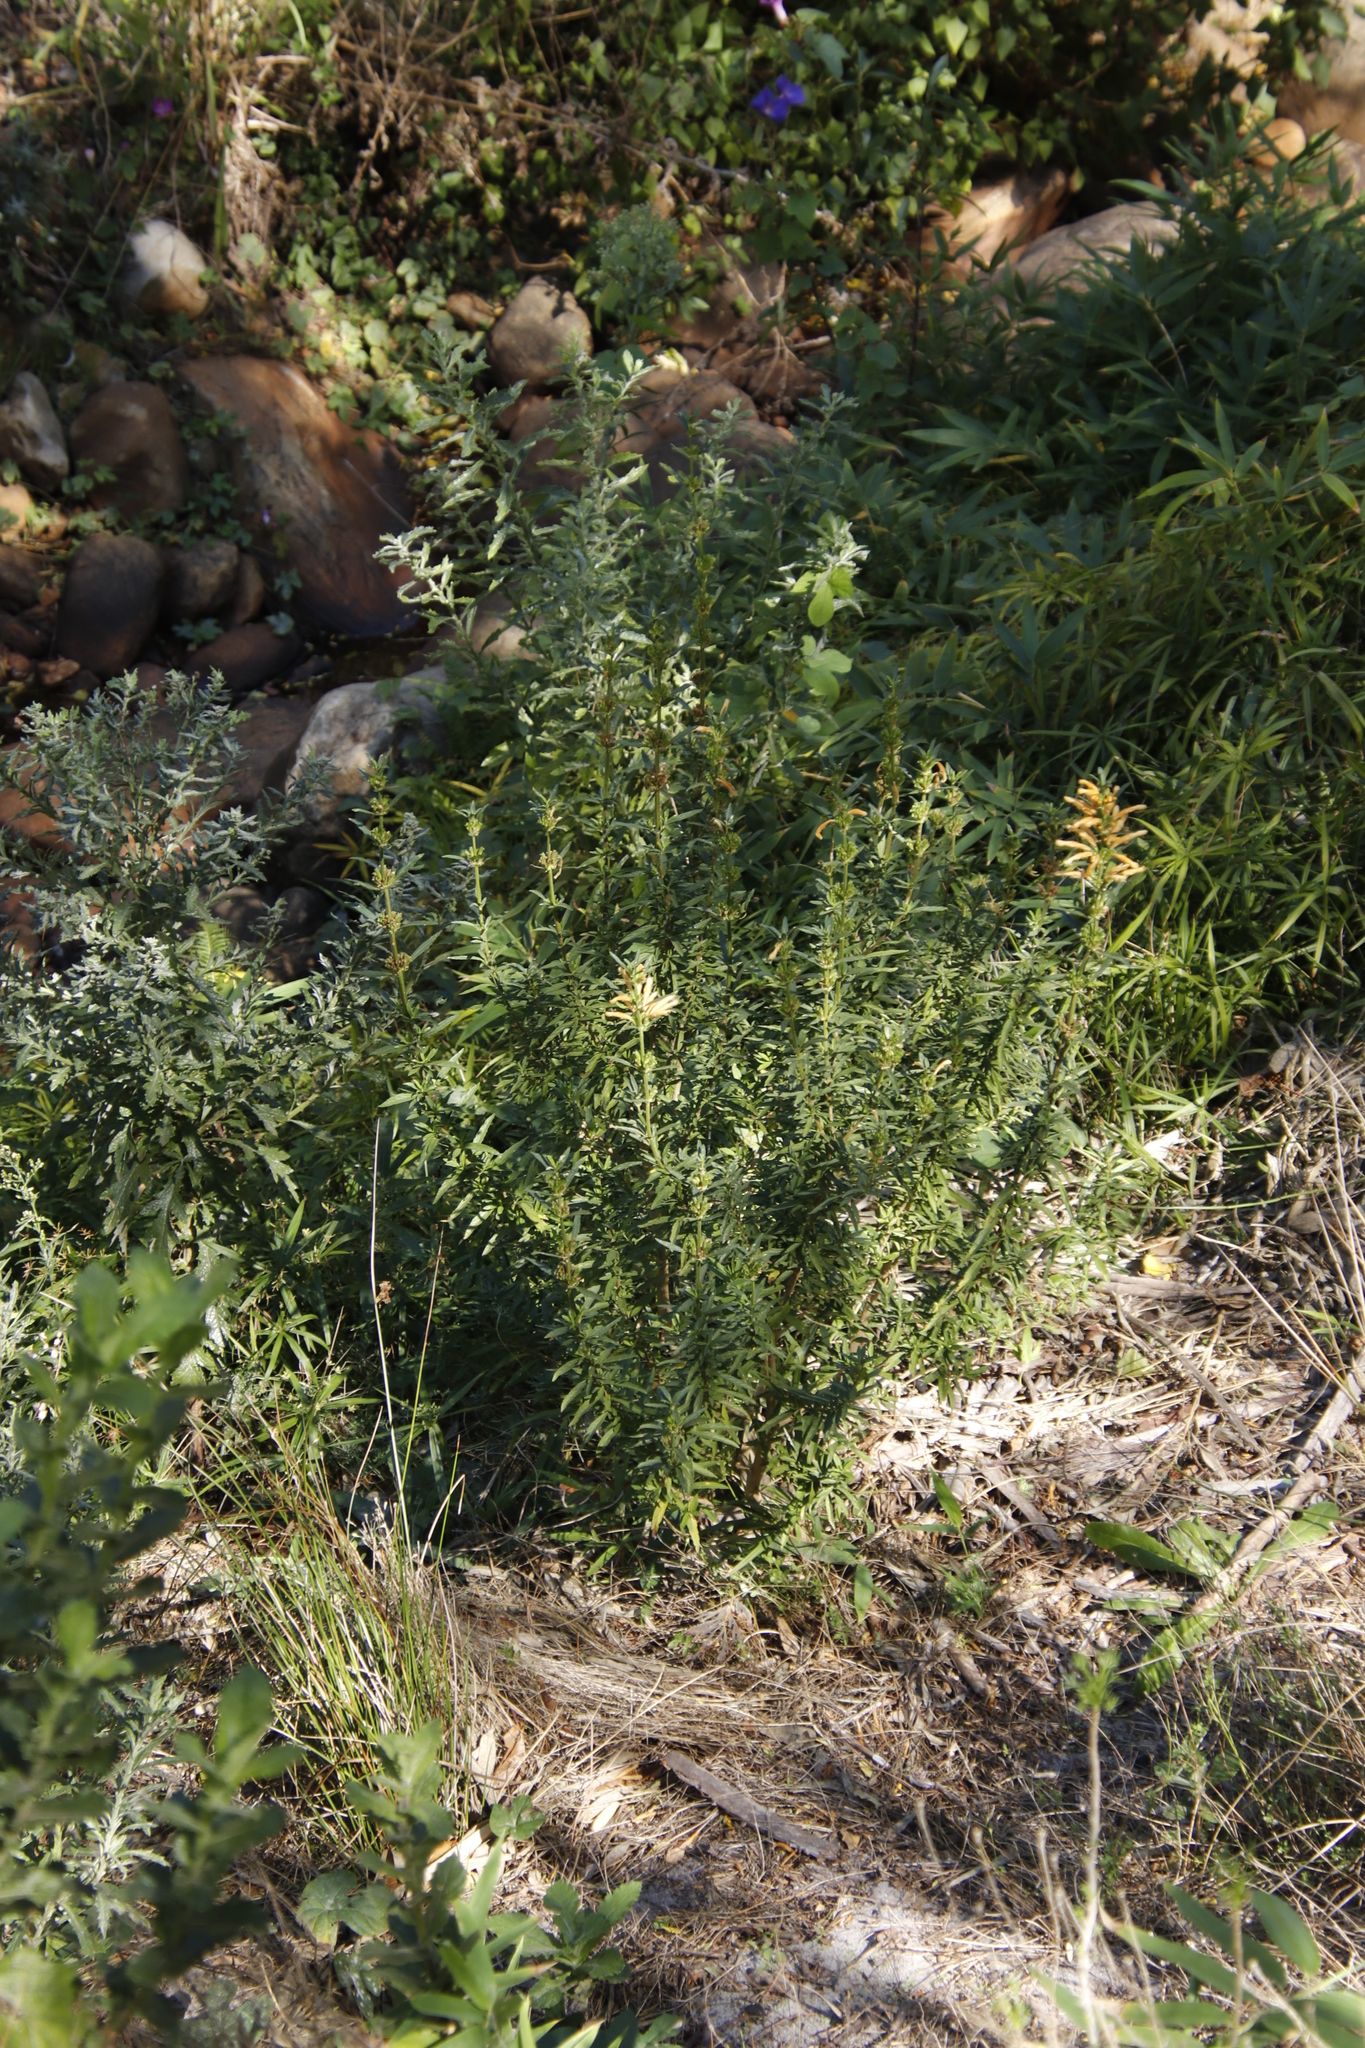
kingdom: Plantae
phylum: Tracheophyta
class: Magnoliopsida
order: Lamiales
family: Lamiaceae
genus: Leonotis
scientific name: Leonotis leonurus
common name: Lion's ear
